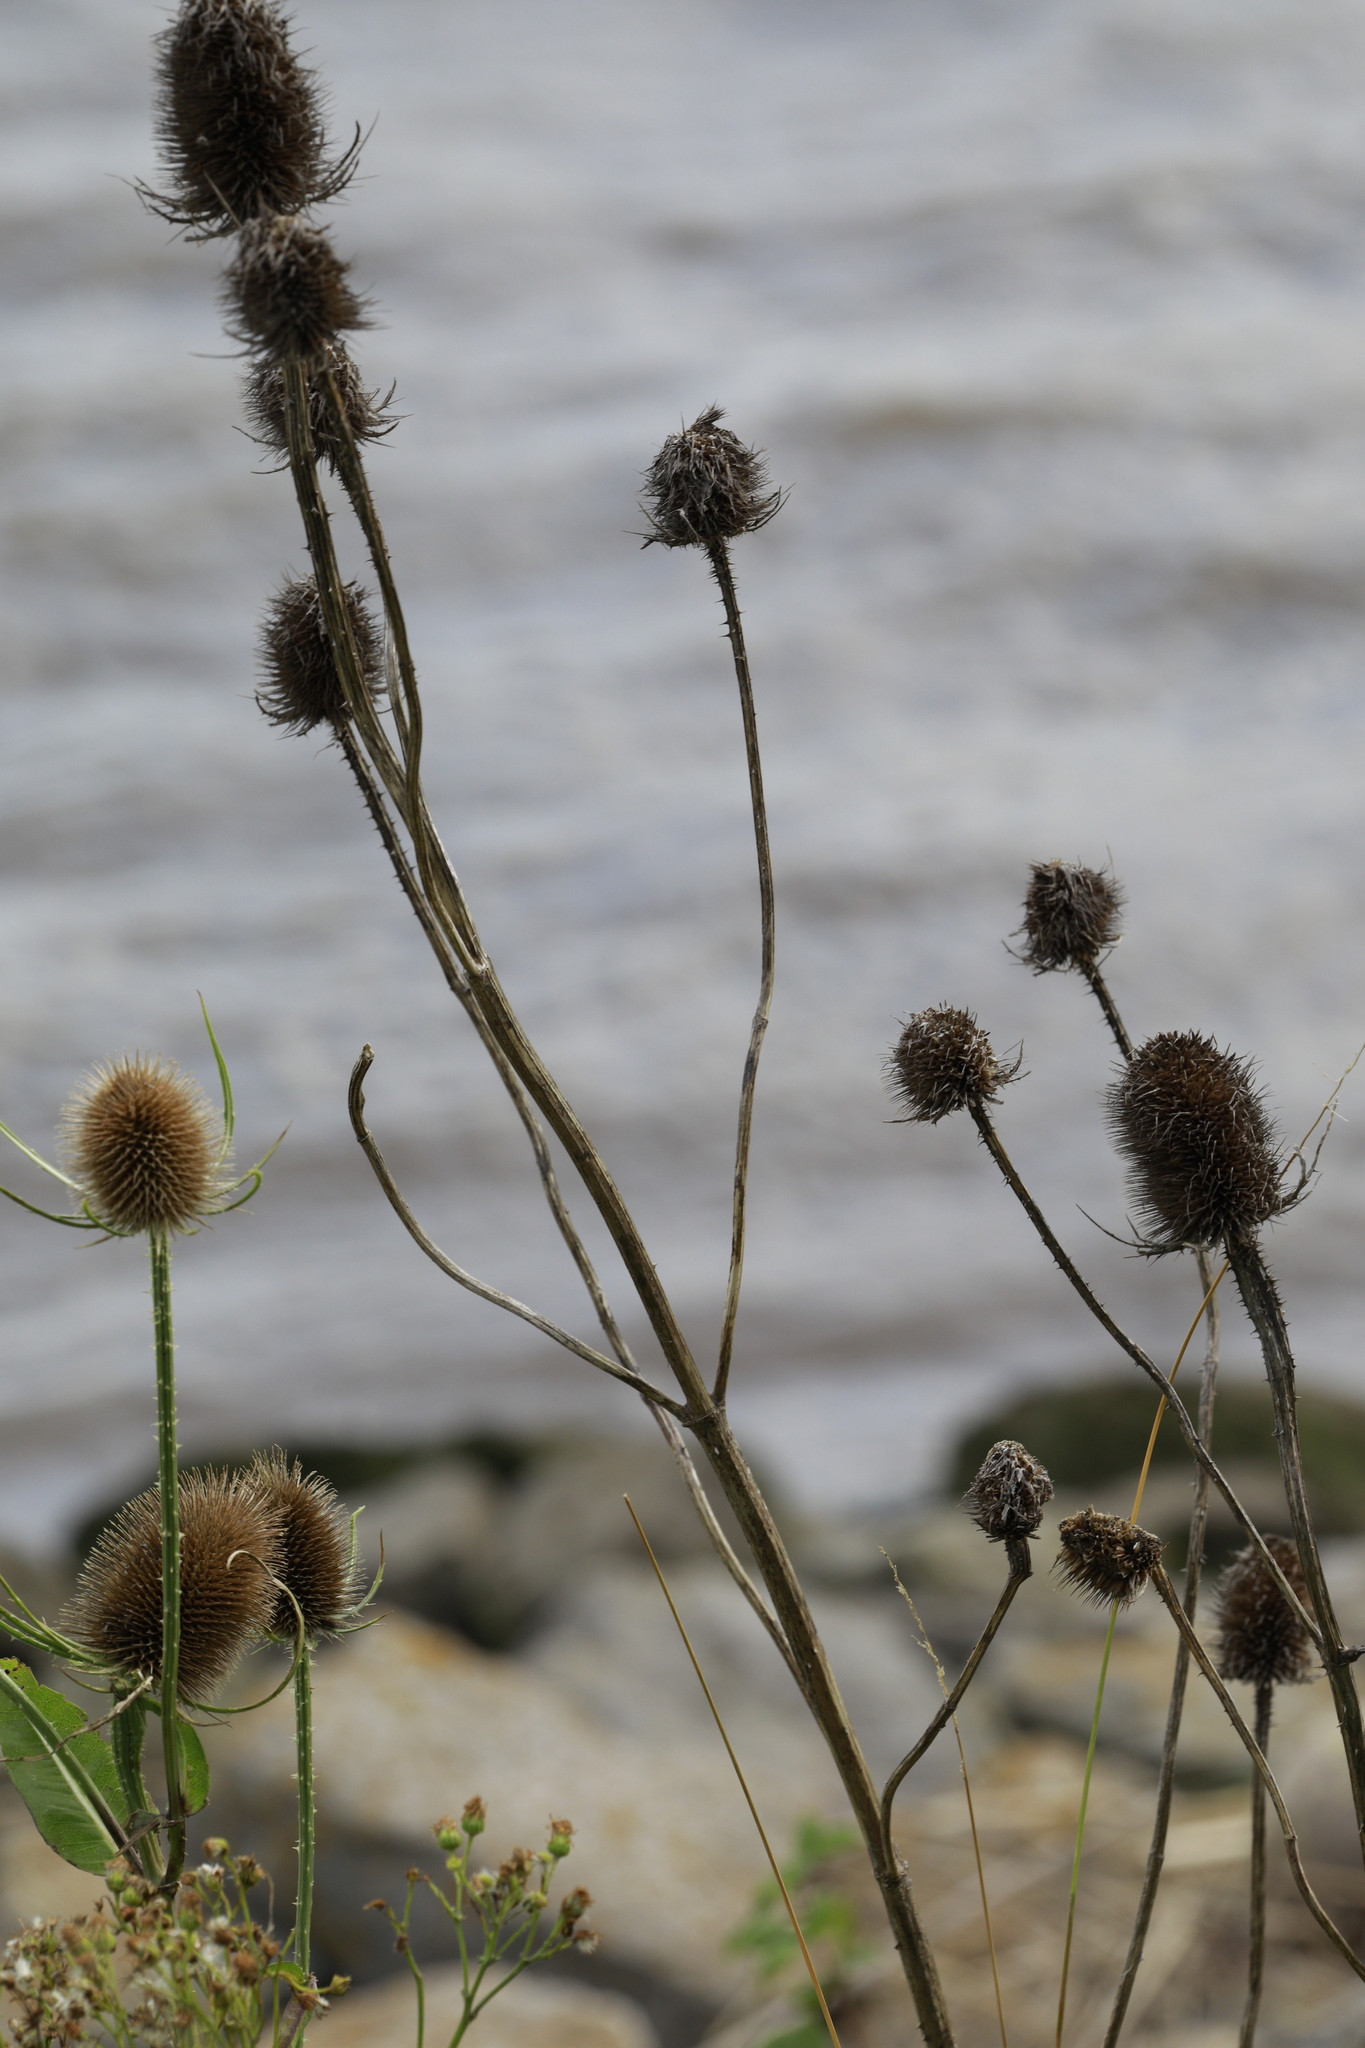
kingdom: Plantae
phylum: Tracheophyta
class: Magnoliopsida
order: Dipsacales
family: Caprifoliaceae
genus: Dipsacus
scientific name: Dipsacus fullonum
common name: Teasel
